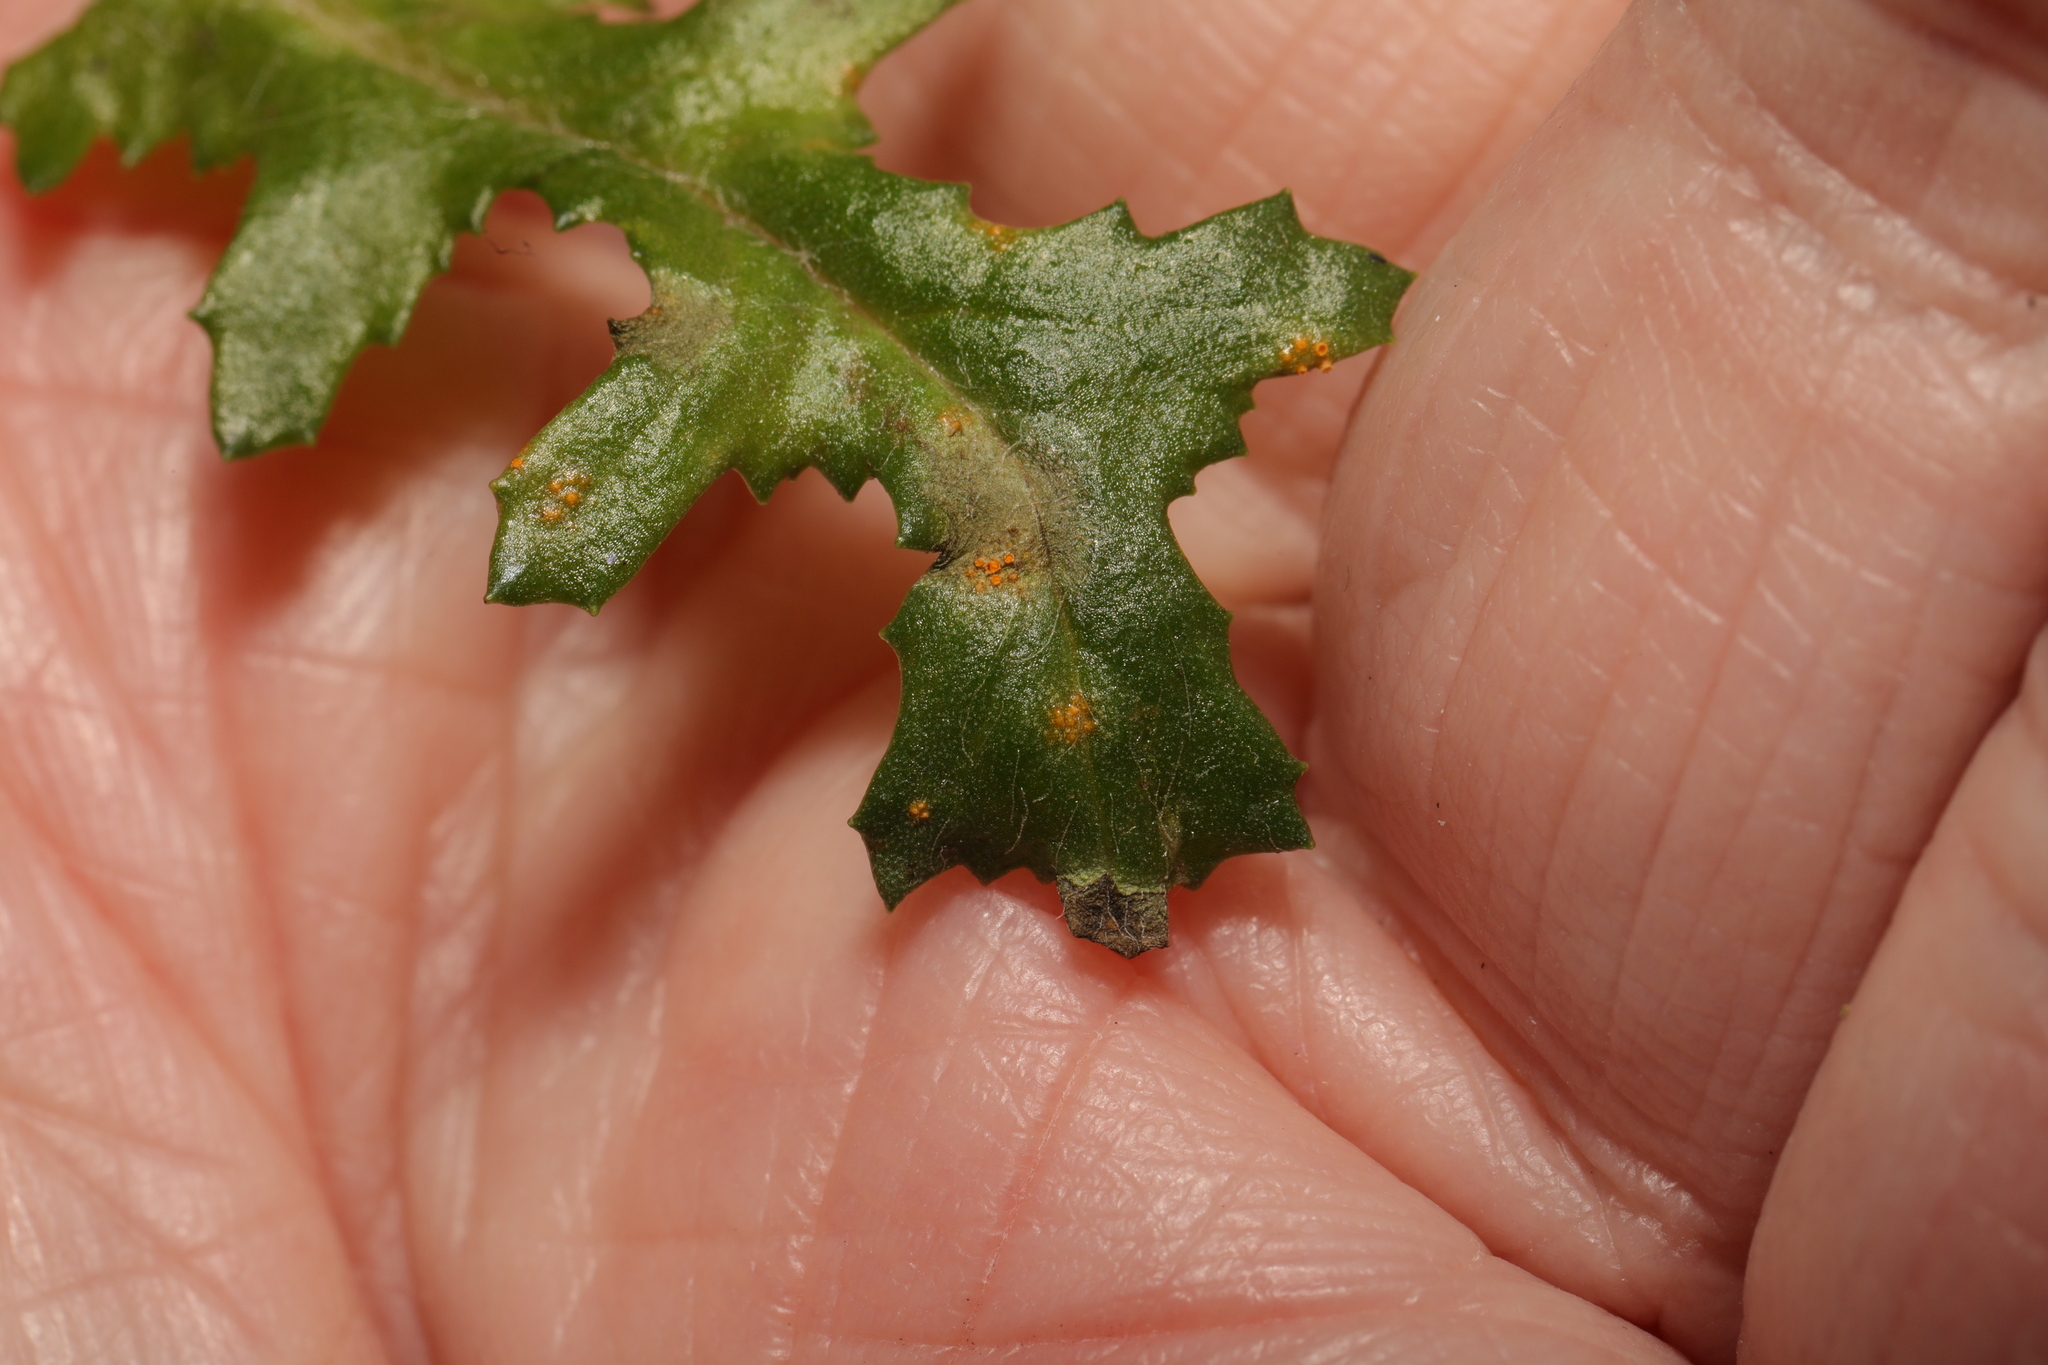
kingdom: Fungi
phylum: Basidiomycota
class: Pucciniomycetes
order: Pucciniales
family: Pucciniaceae
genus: Puccinia
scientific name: Puccinia lagenophorae
